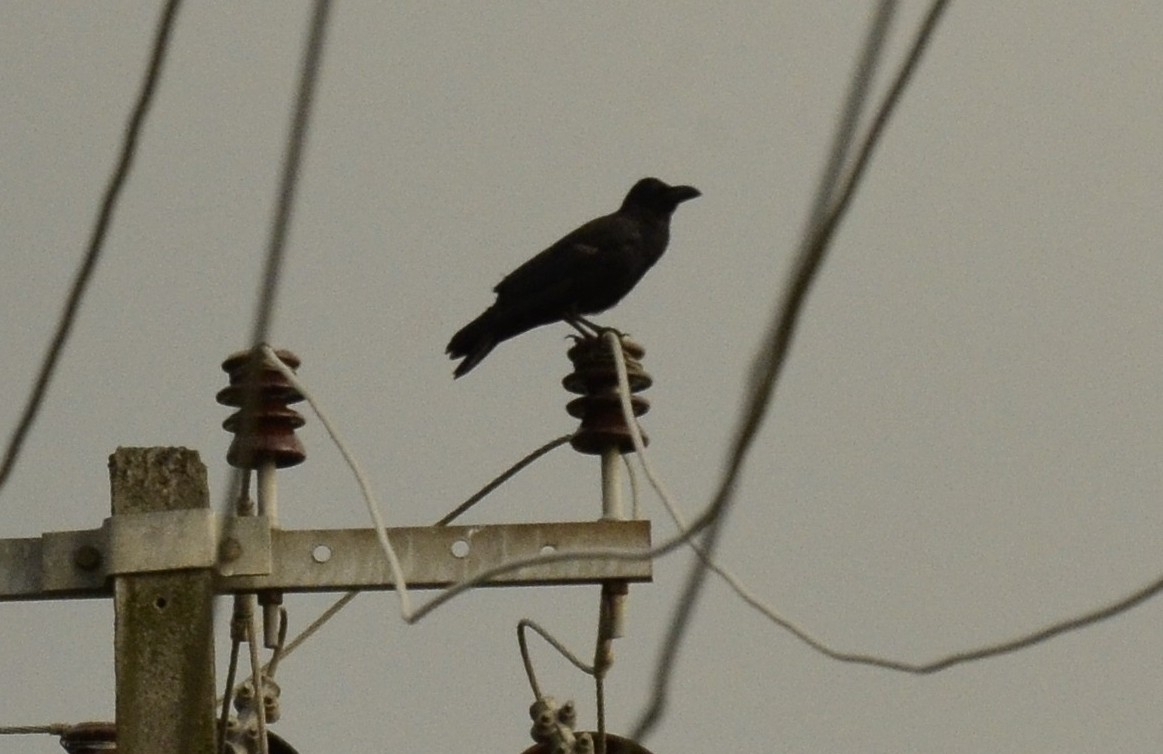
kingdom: Animalia
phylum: Chordata
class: Aves
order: Passeriformes
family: Corvidae
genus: Corvus
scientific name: Corvus macrorhynchos
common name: Large-billed crow
